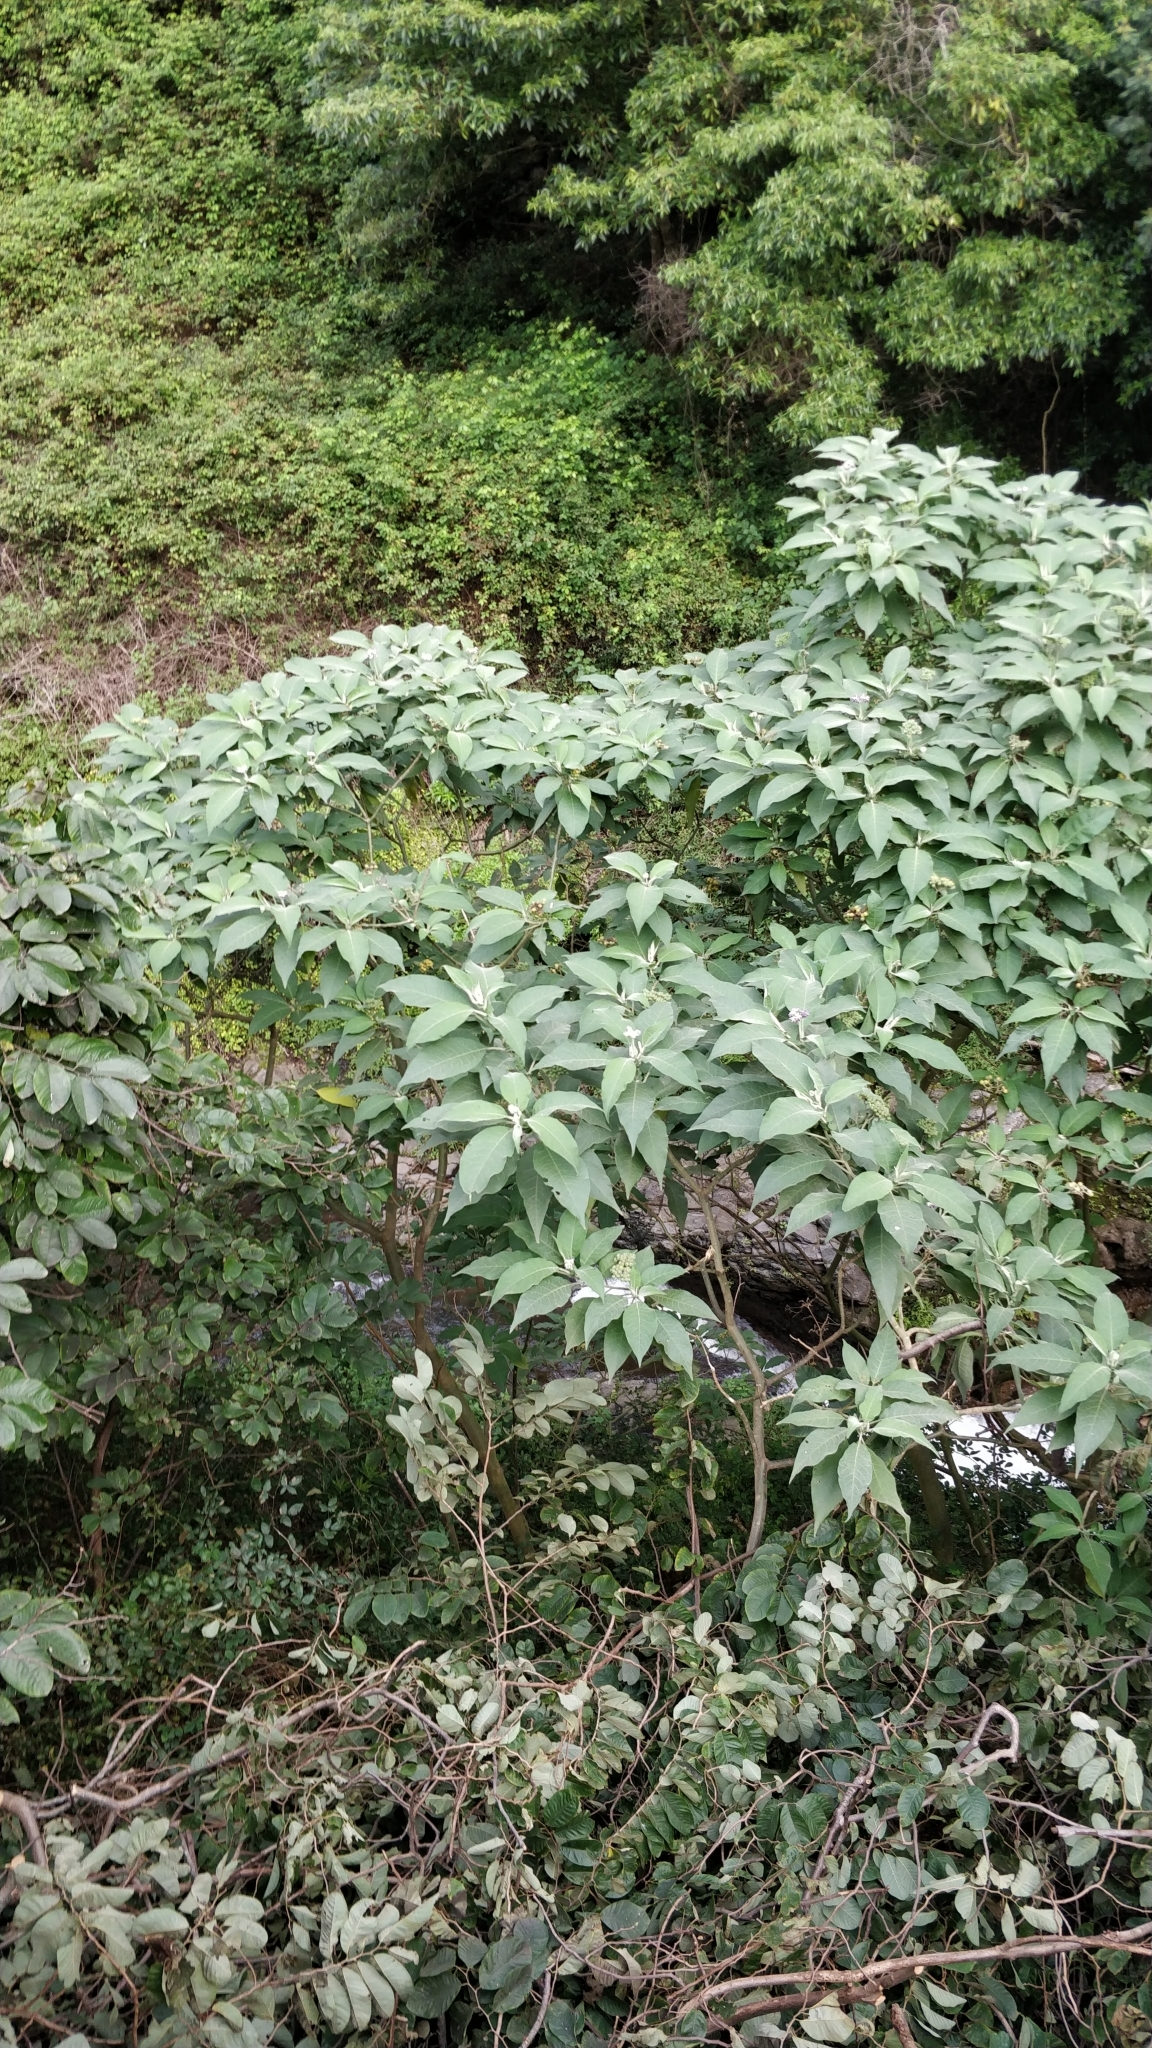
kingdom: Plantae
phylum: Tracheophyta
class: Magnoliopsida
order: Solanales
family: Solanaceae
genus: Solanum
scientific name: Solanum mauritianum
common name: Earleaf nightshade
